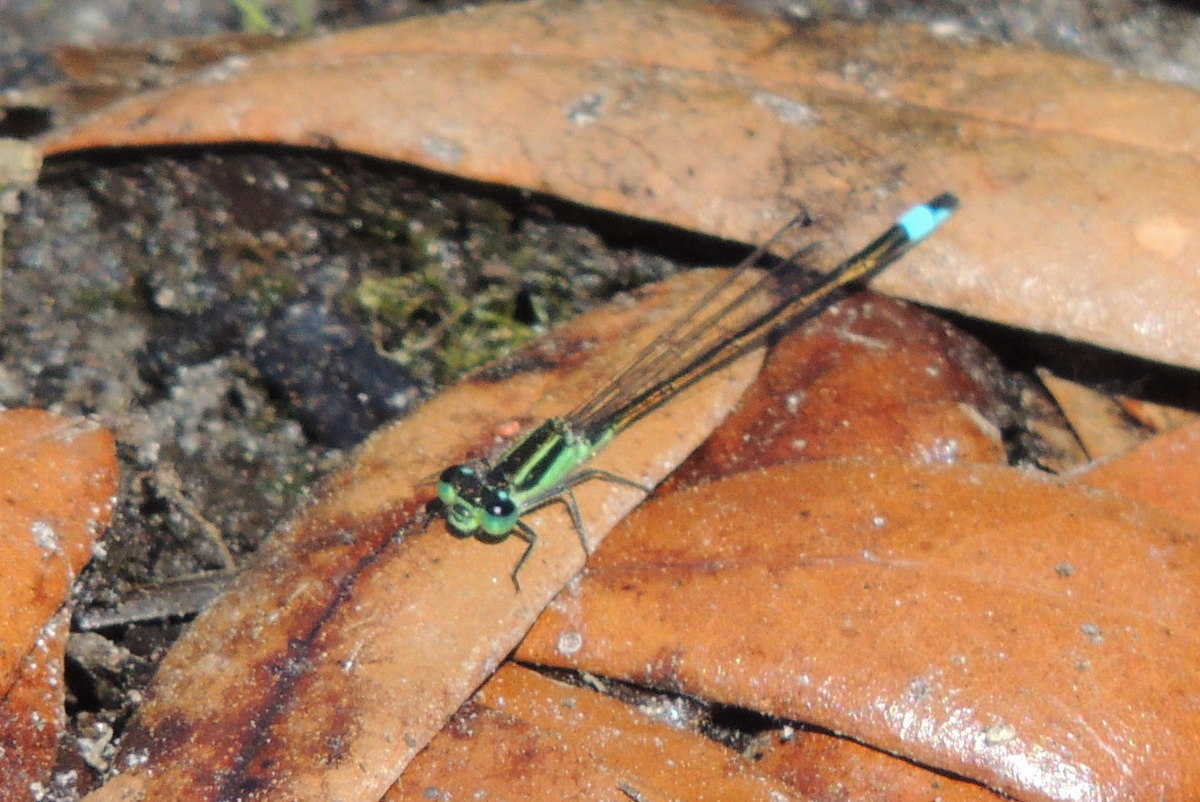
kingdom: Animalia
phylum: Arthropoda
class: Insecta
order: Odonata
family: Coenagrionidae
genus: Ischnura
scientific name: Ischnura ramburii
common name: Rambur's forktail
